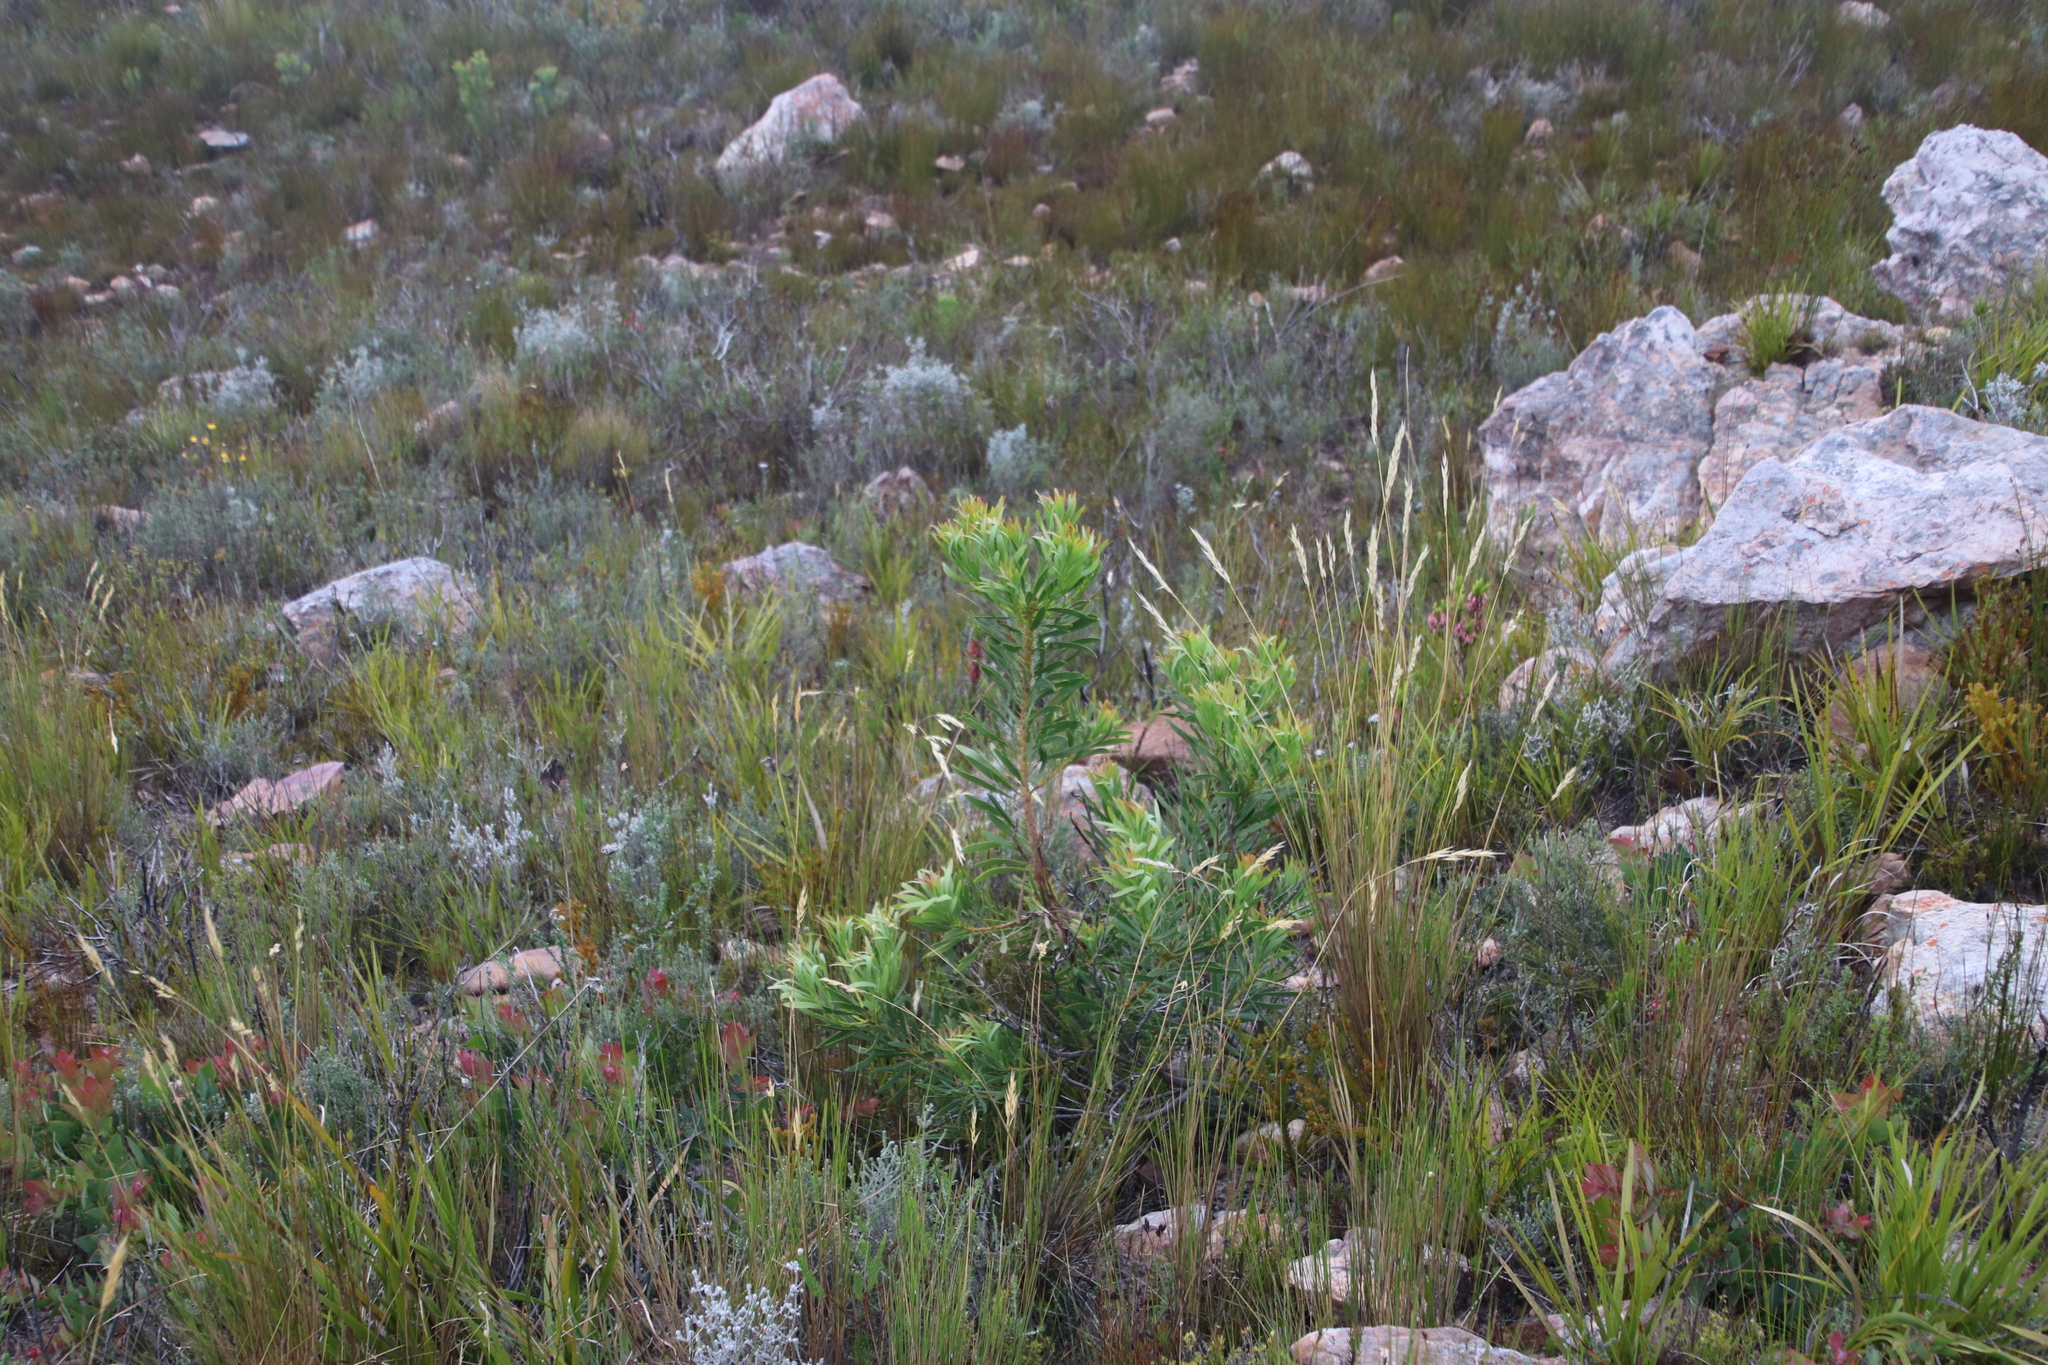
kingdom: Plantae
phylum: Tracheophyta
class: Magnoliopsida
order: Proteales
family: Proteaceae
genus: Protea
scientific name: Protea repens
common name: Sugarbush
